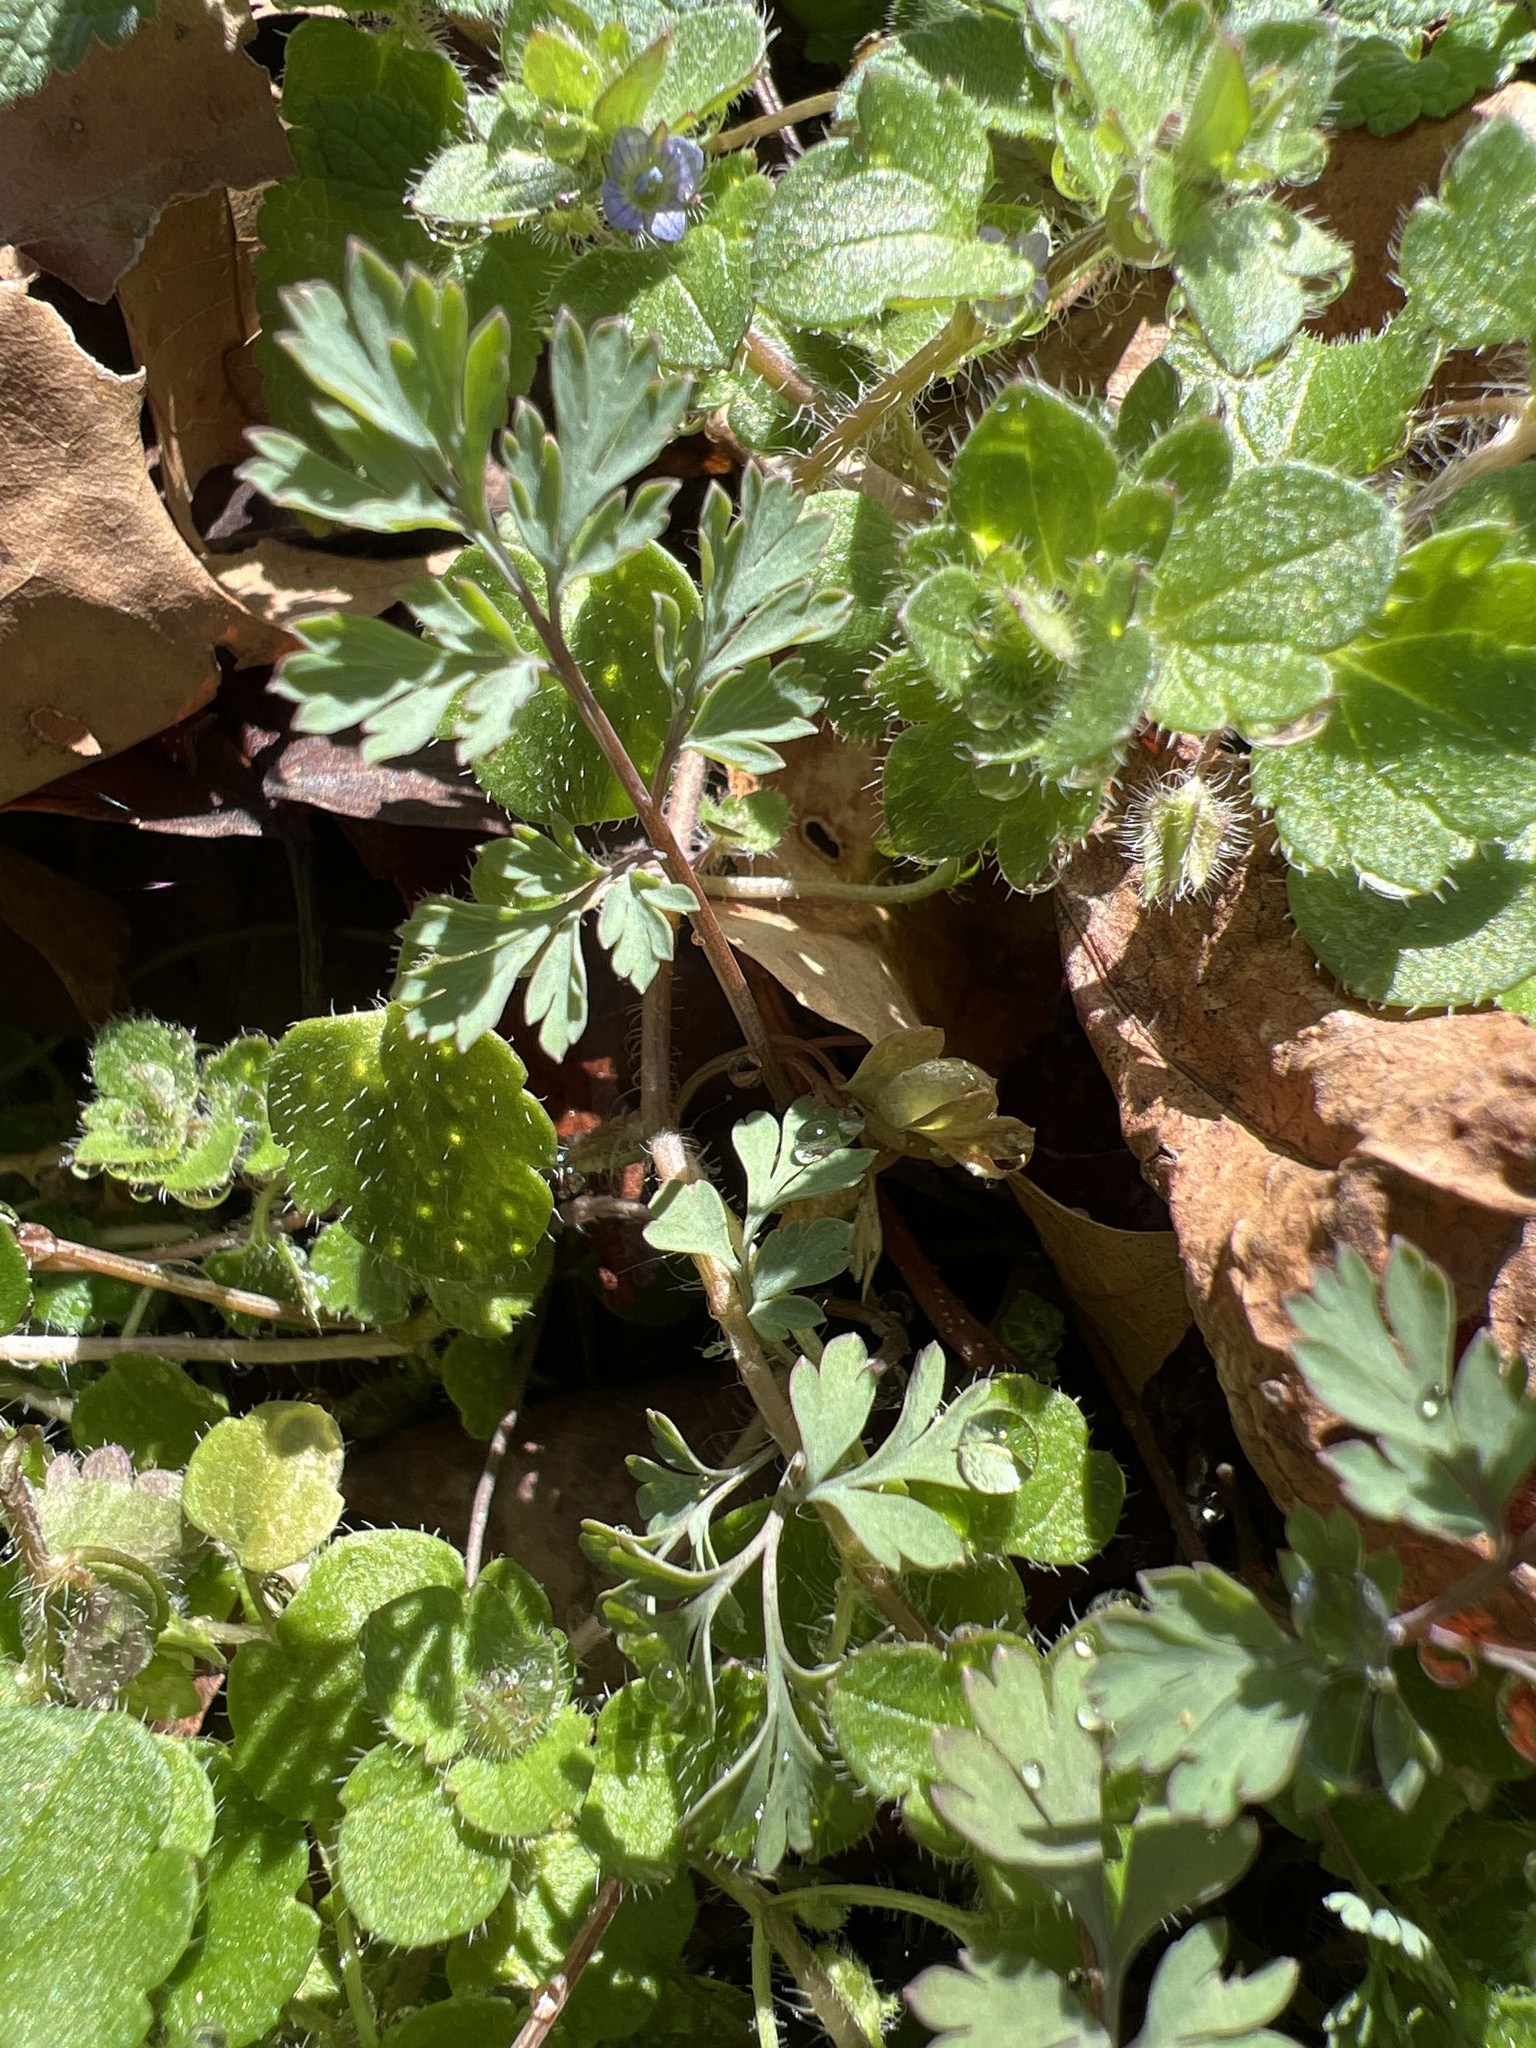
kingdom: Plantae
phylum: Tracheophyta
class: Magnoliopsida
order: Ranunculales
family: Papaveraceae
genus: Corydalis
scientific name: Corydalis flavula
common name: Yellow corydalis
